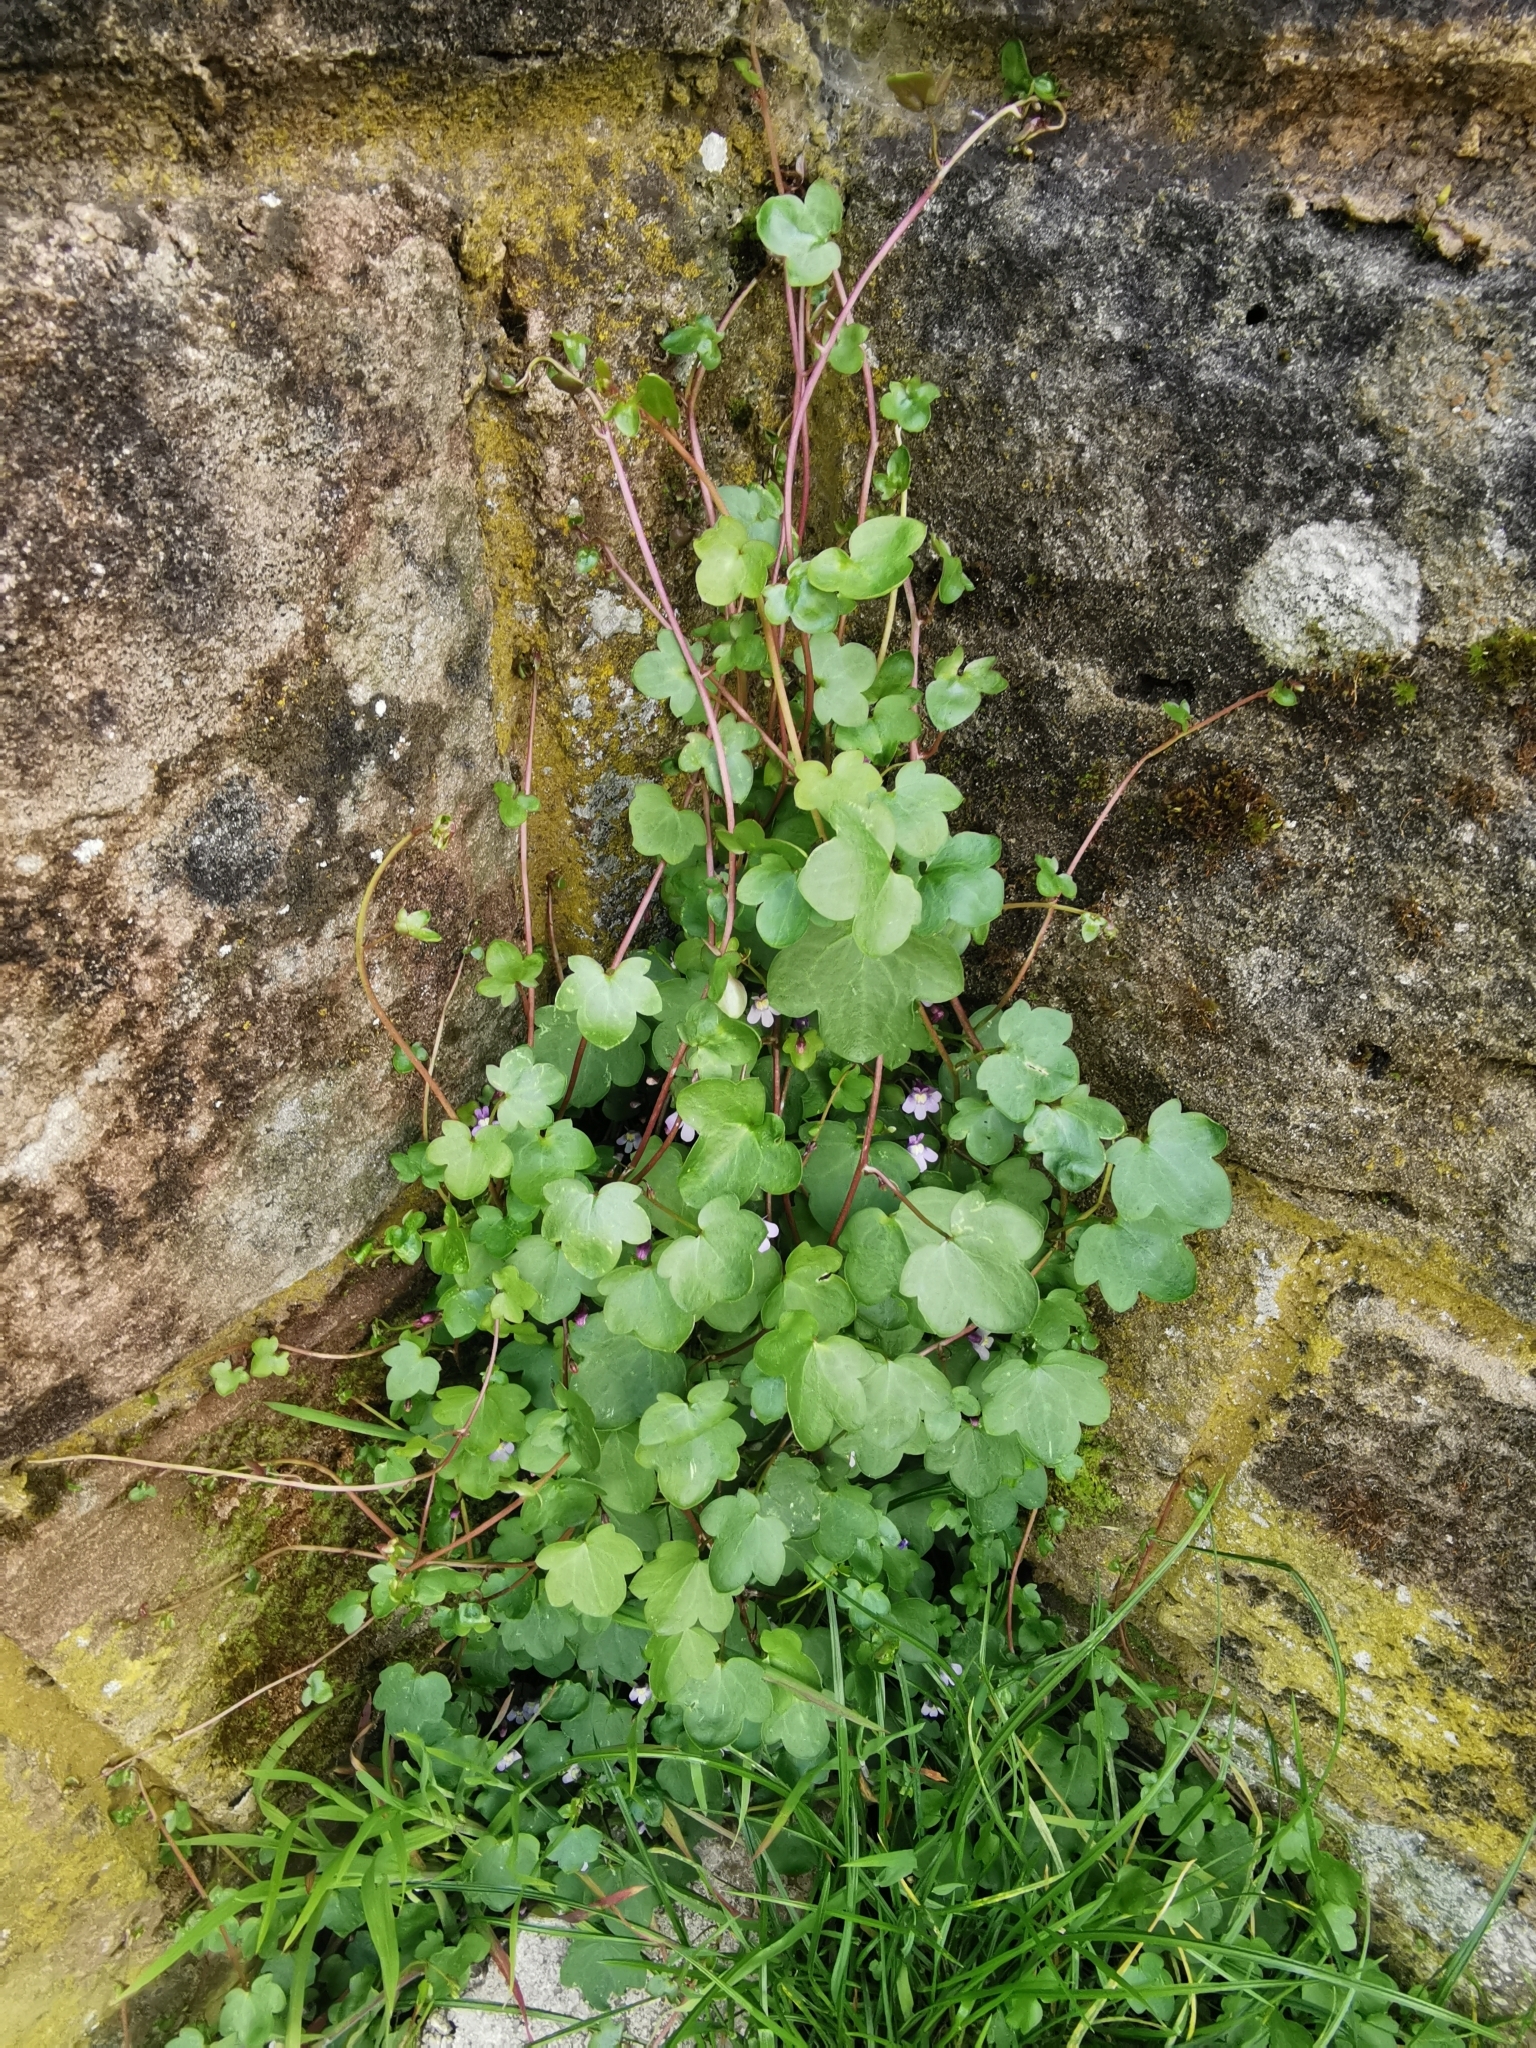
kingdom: Plantae
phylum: Tracheophyta
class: Magnoliopsida
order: Lamiales
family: Plantaginaceae
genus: Cymbalaria
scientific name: Cymbalaria muralis
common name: Ivy-leaved toadflax
